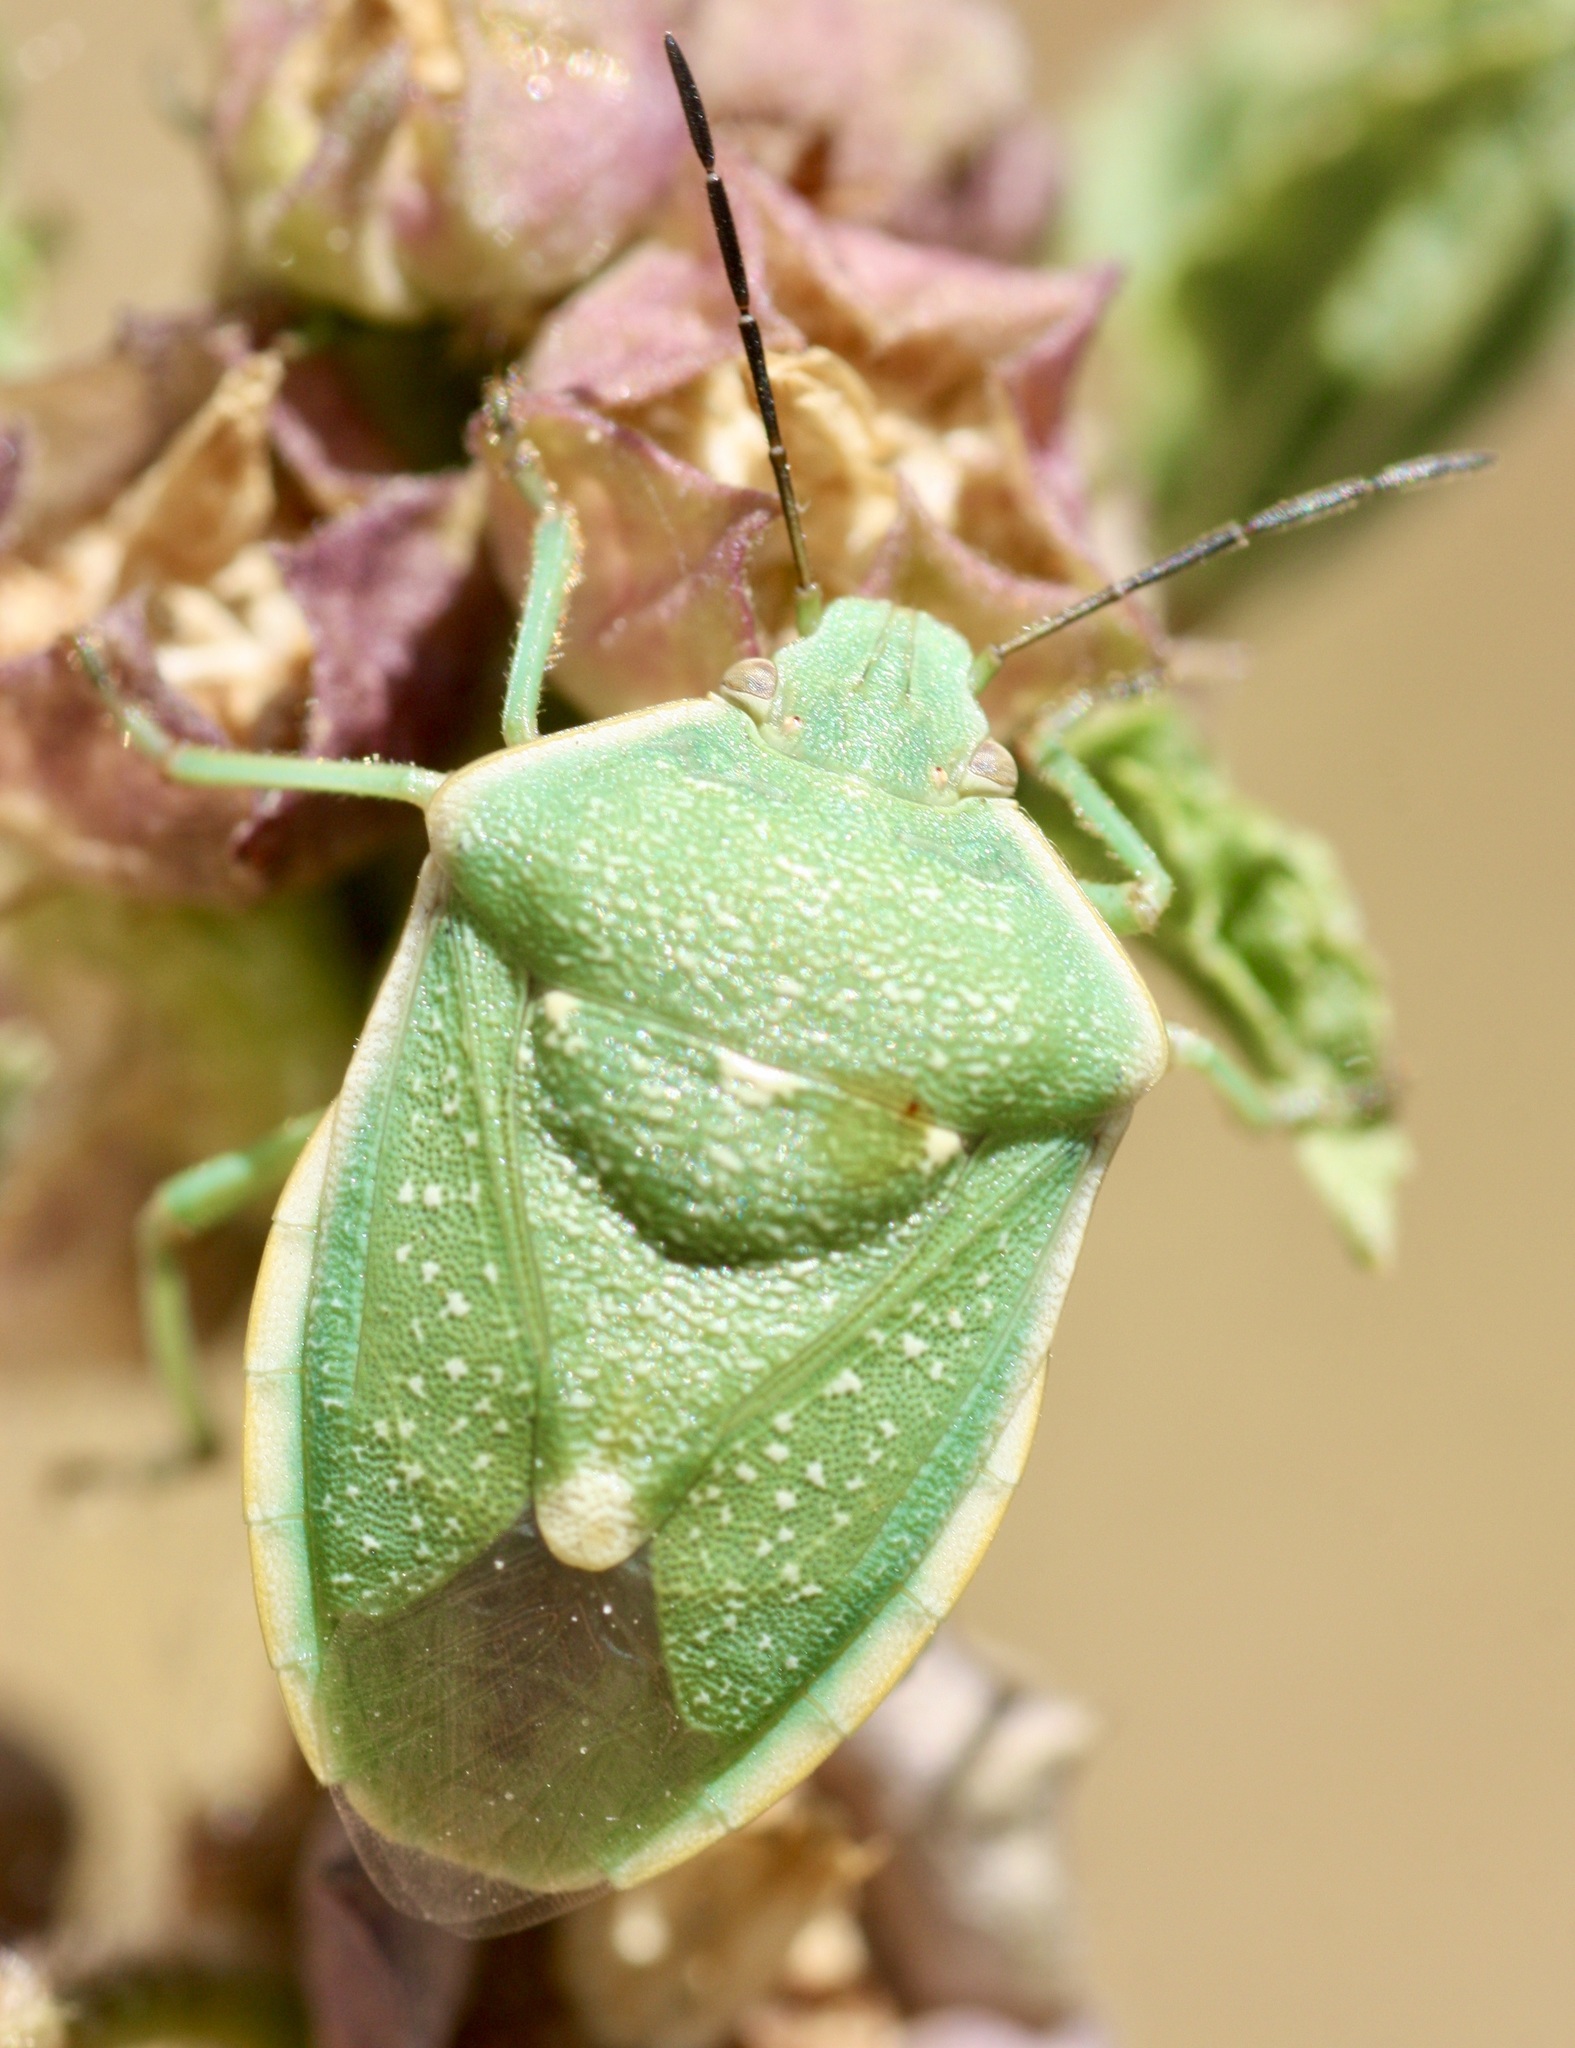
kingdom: Animalia
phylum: Arthropoda
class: Insecta
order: Hemiptera
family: Pentatomidae
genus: Chlorochroa
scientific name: Chlorochroa uhleri
